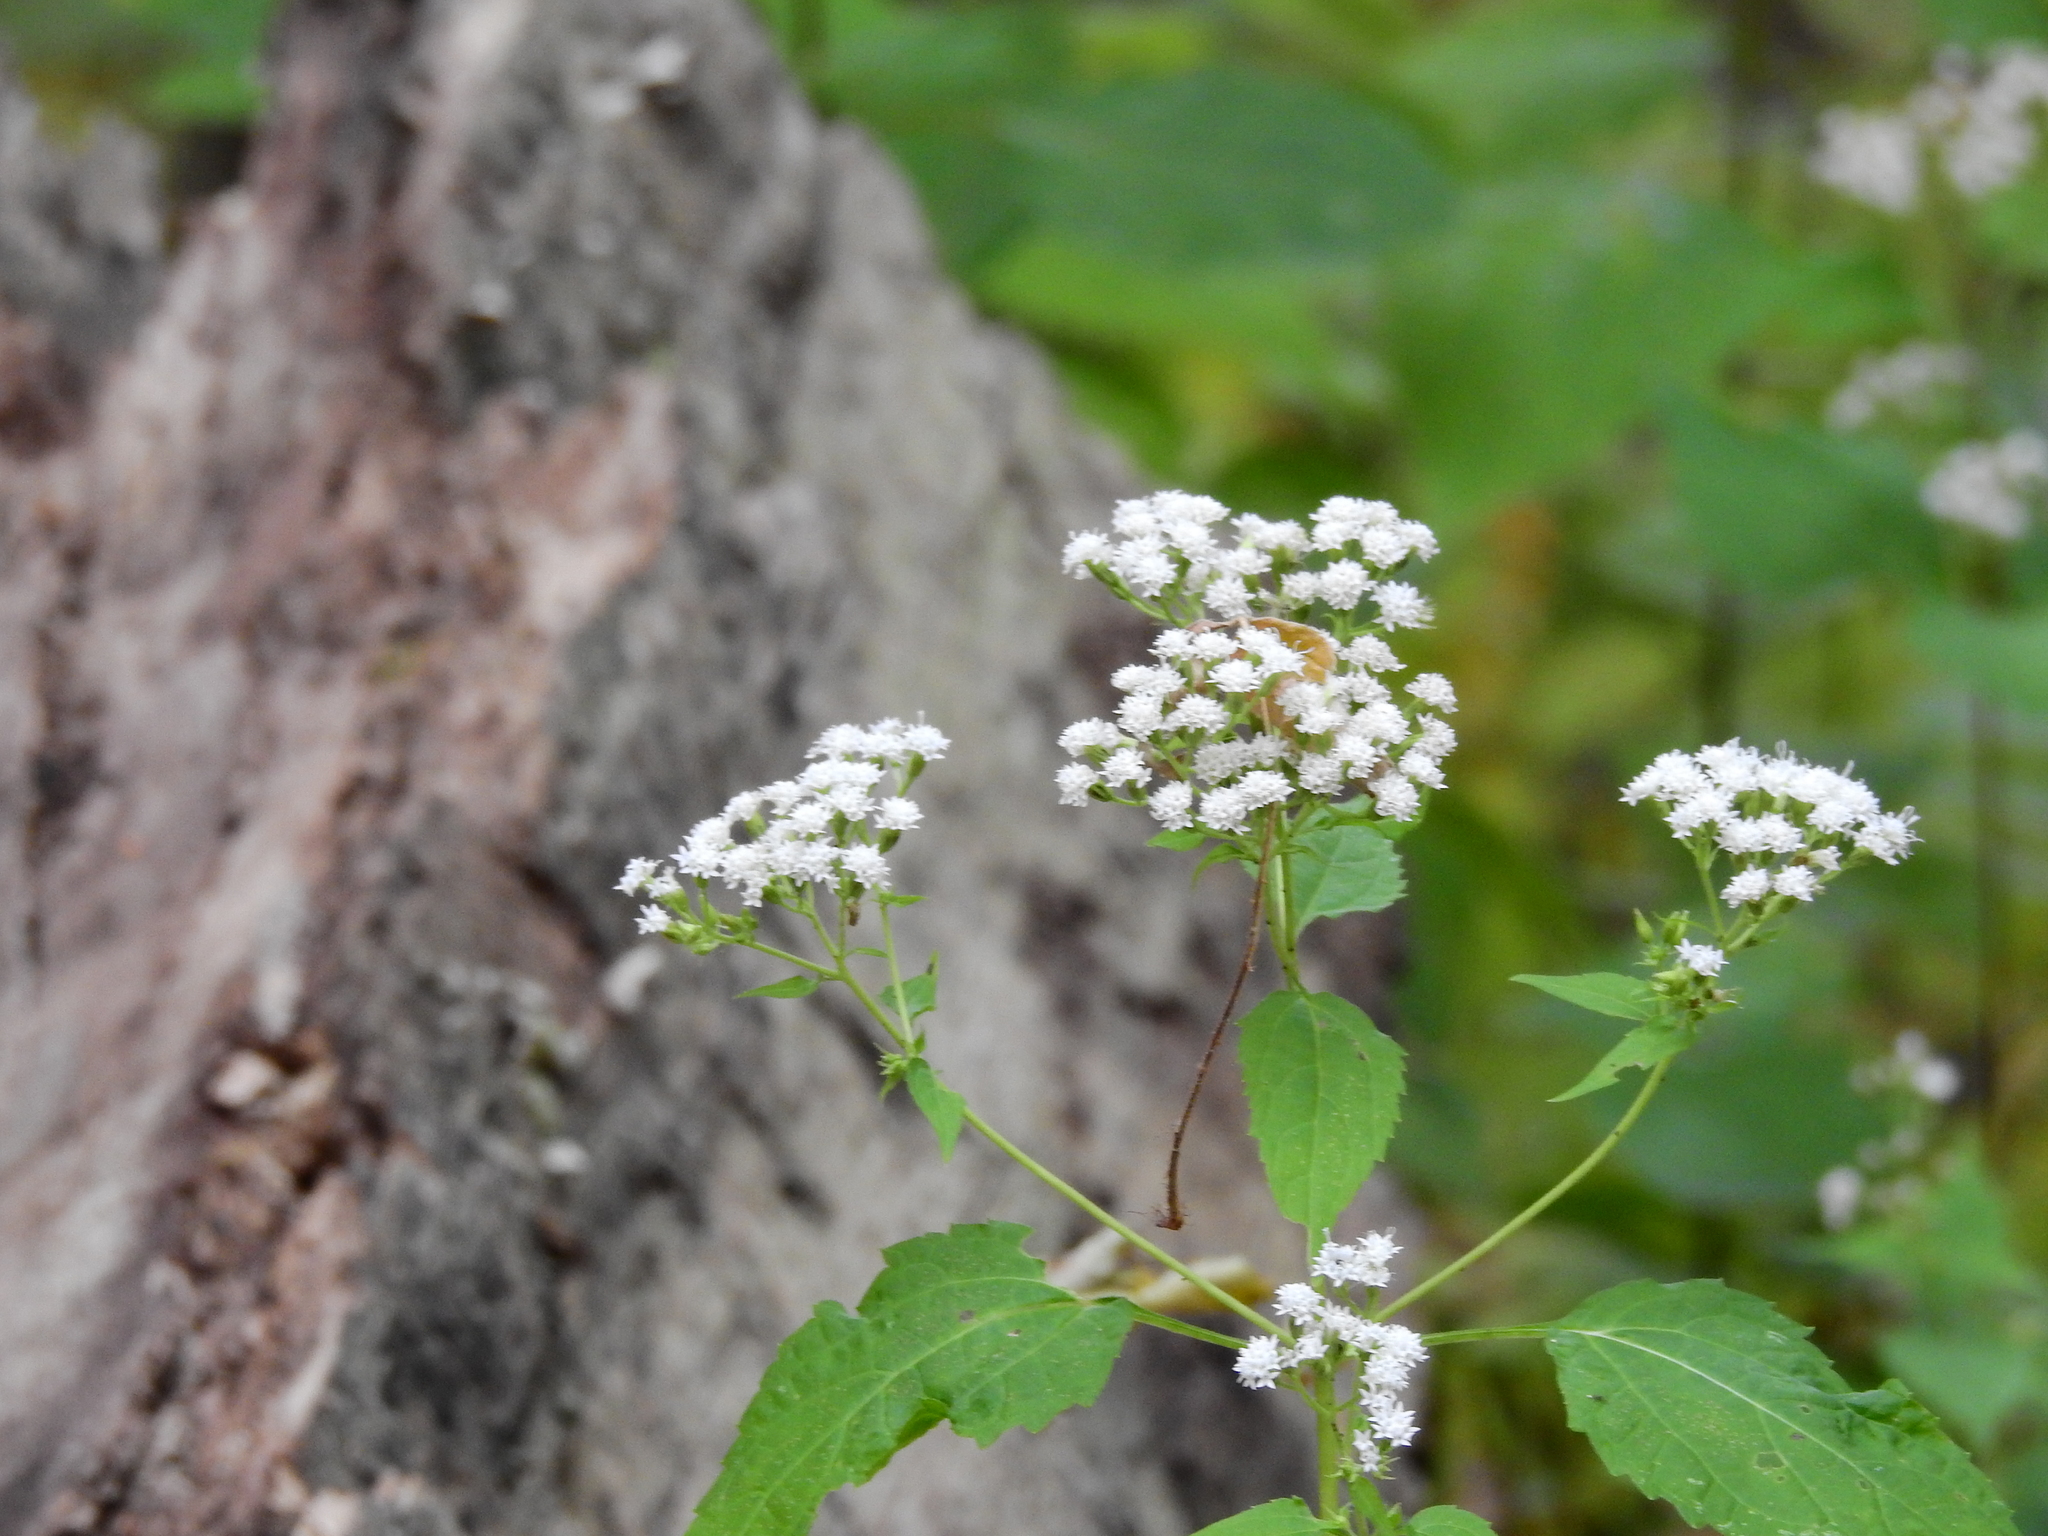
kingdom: Plantae
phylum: Tracheophyta
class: Magnoliopsida
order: Asterales
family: Asteraceae
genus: Ageratina
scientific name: Ageratina altissima
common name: White snakeroot
